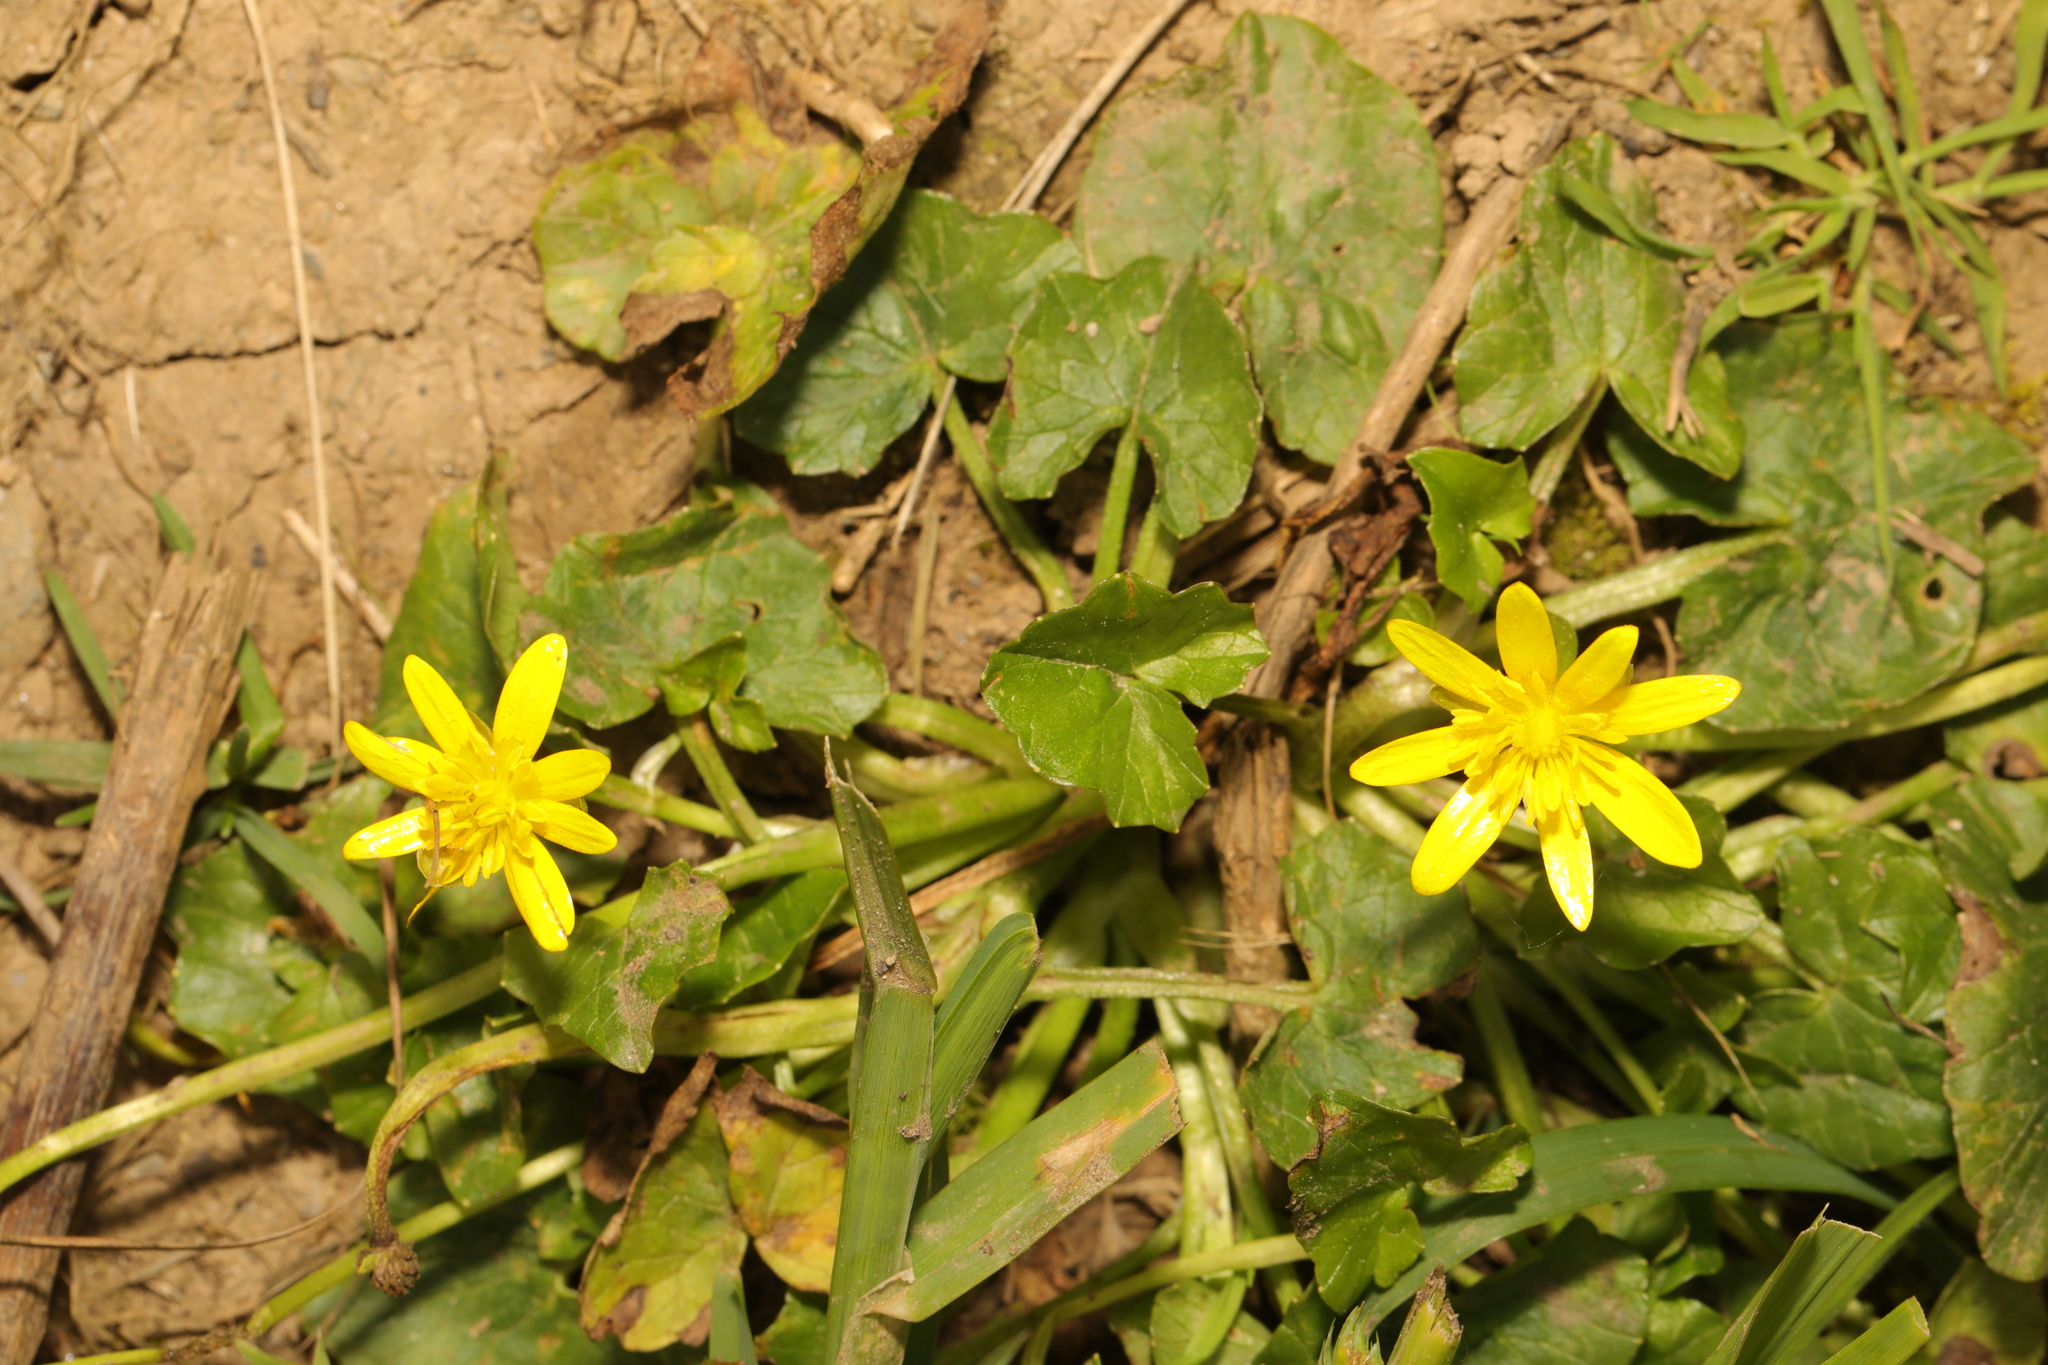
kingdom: Plantae
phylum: Tracheophyta
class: Magnoliopsida
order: Ranunculales
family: Ranunculaceae
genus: Ficaria
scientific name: Ficaria verna
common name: Lesser celandine
